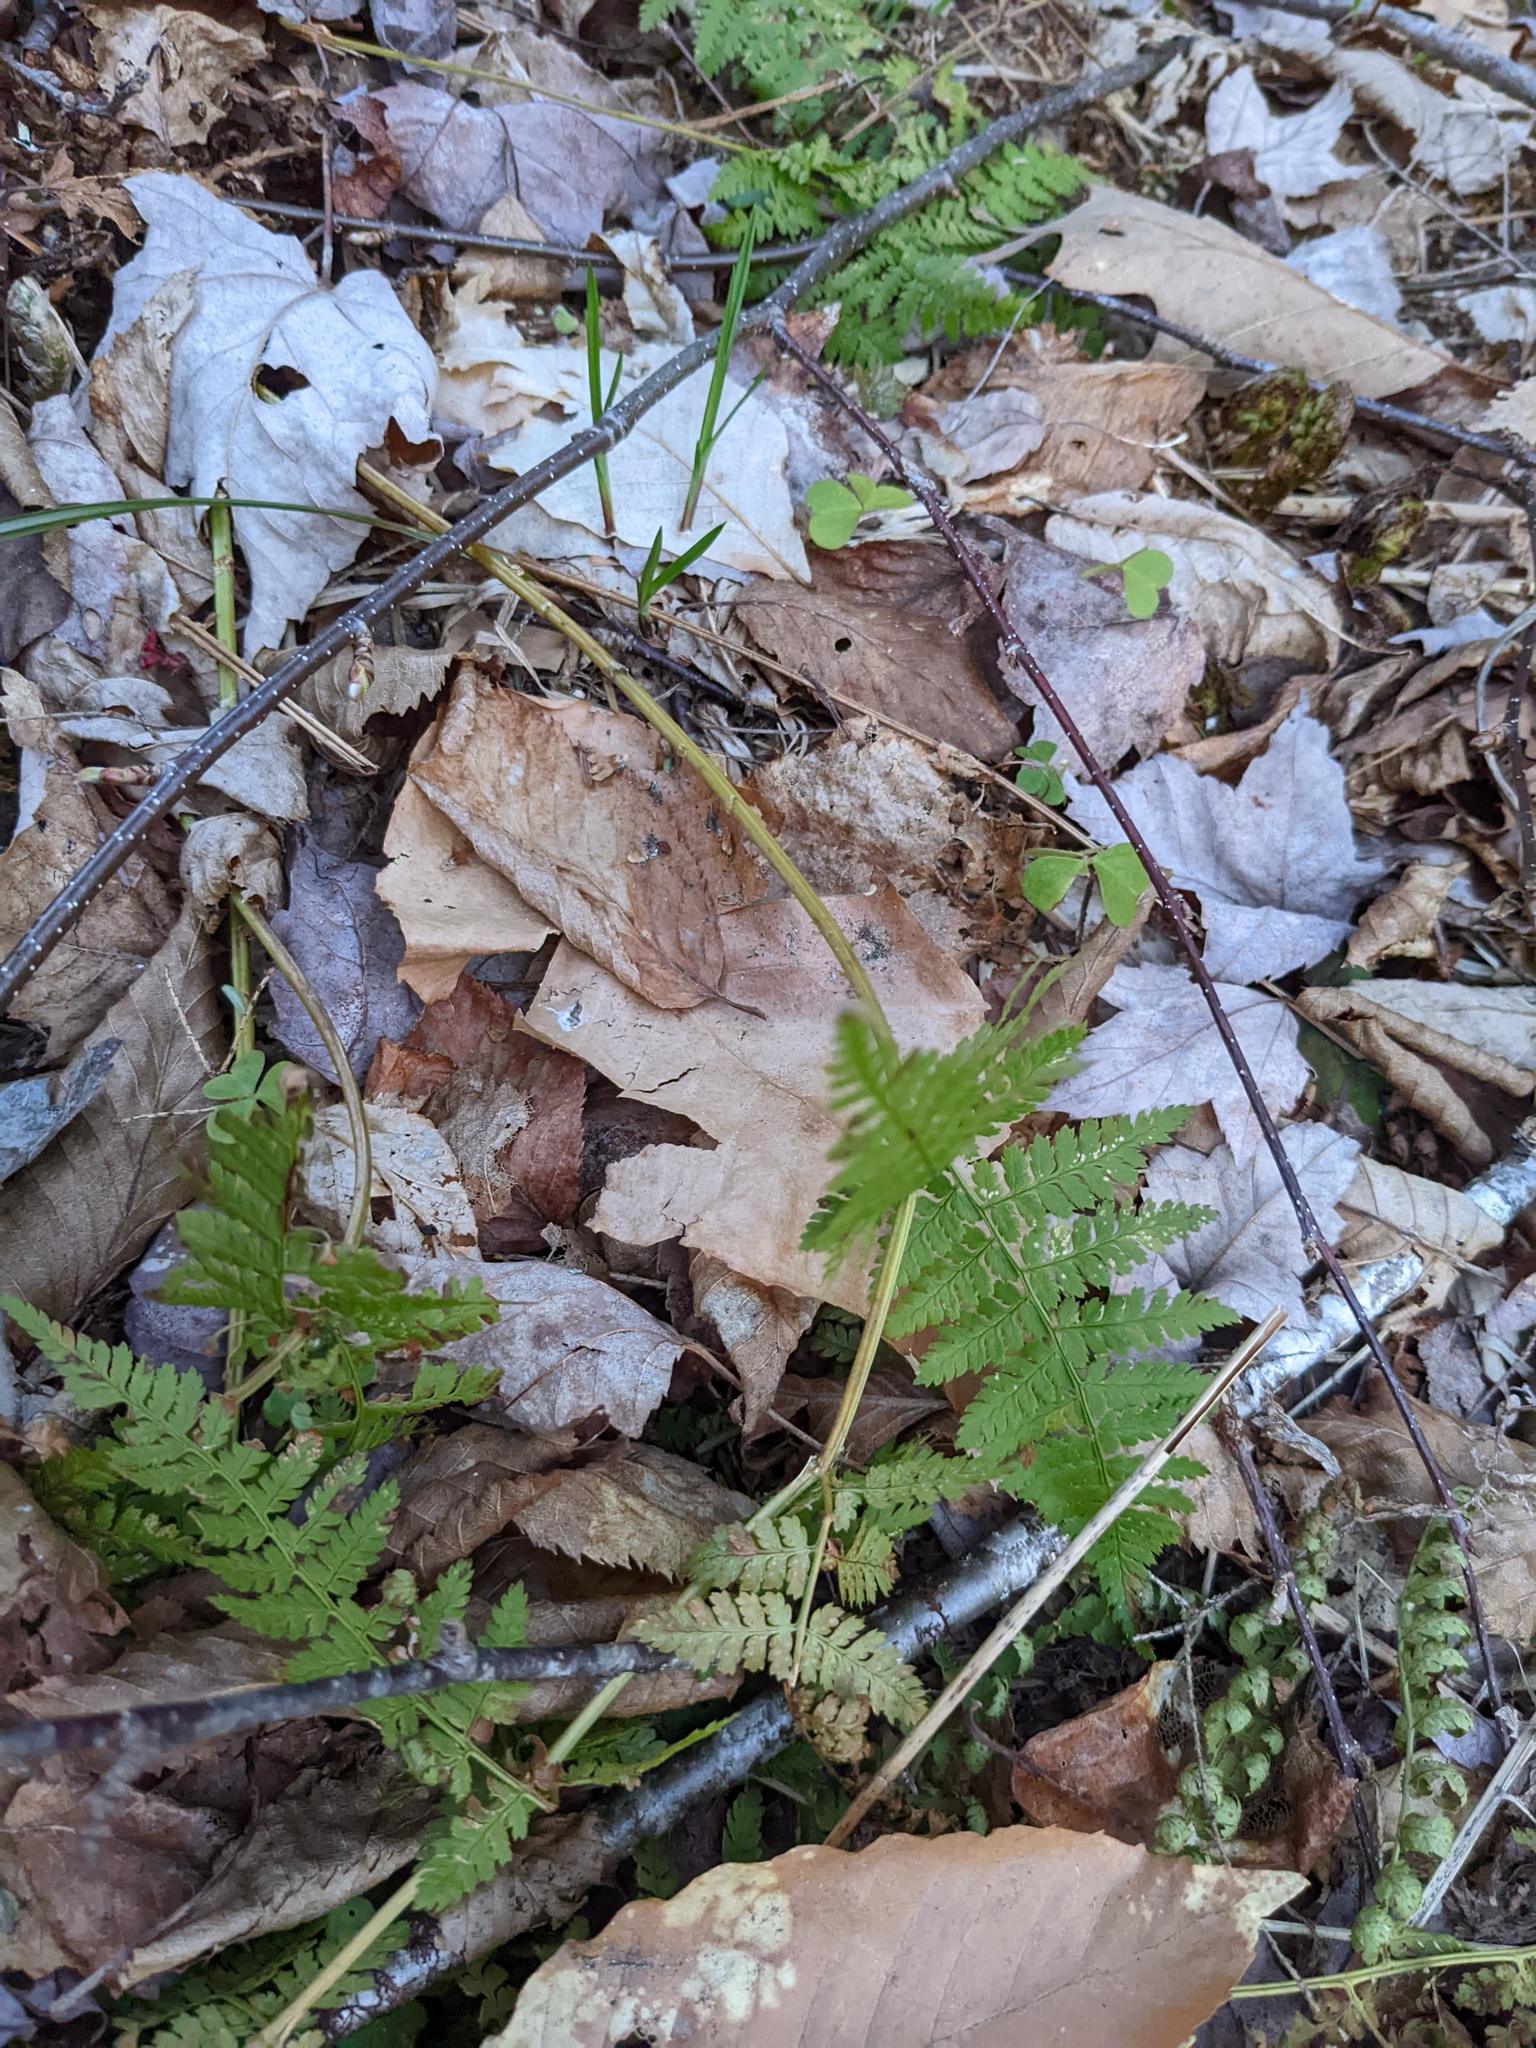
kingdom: Plantae
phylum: Tracheophyta
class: Polypodiopsida
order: Polypodiales
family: Dryopteridaceae
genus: Dryopteris
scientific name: Dryopteris intermedia
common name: Evergreen wood fern
